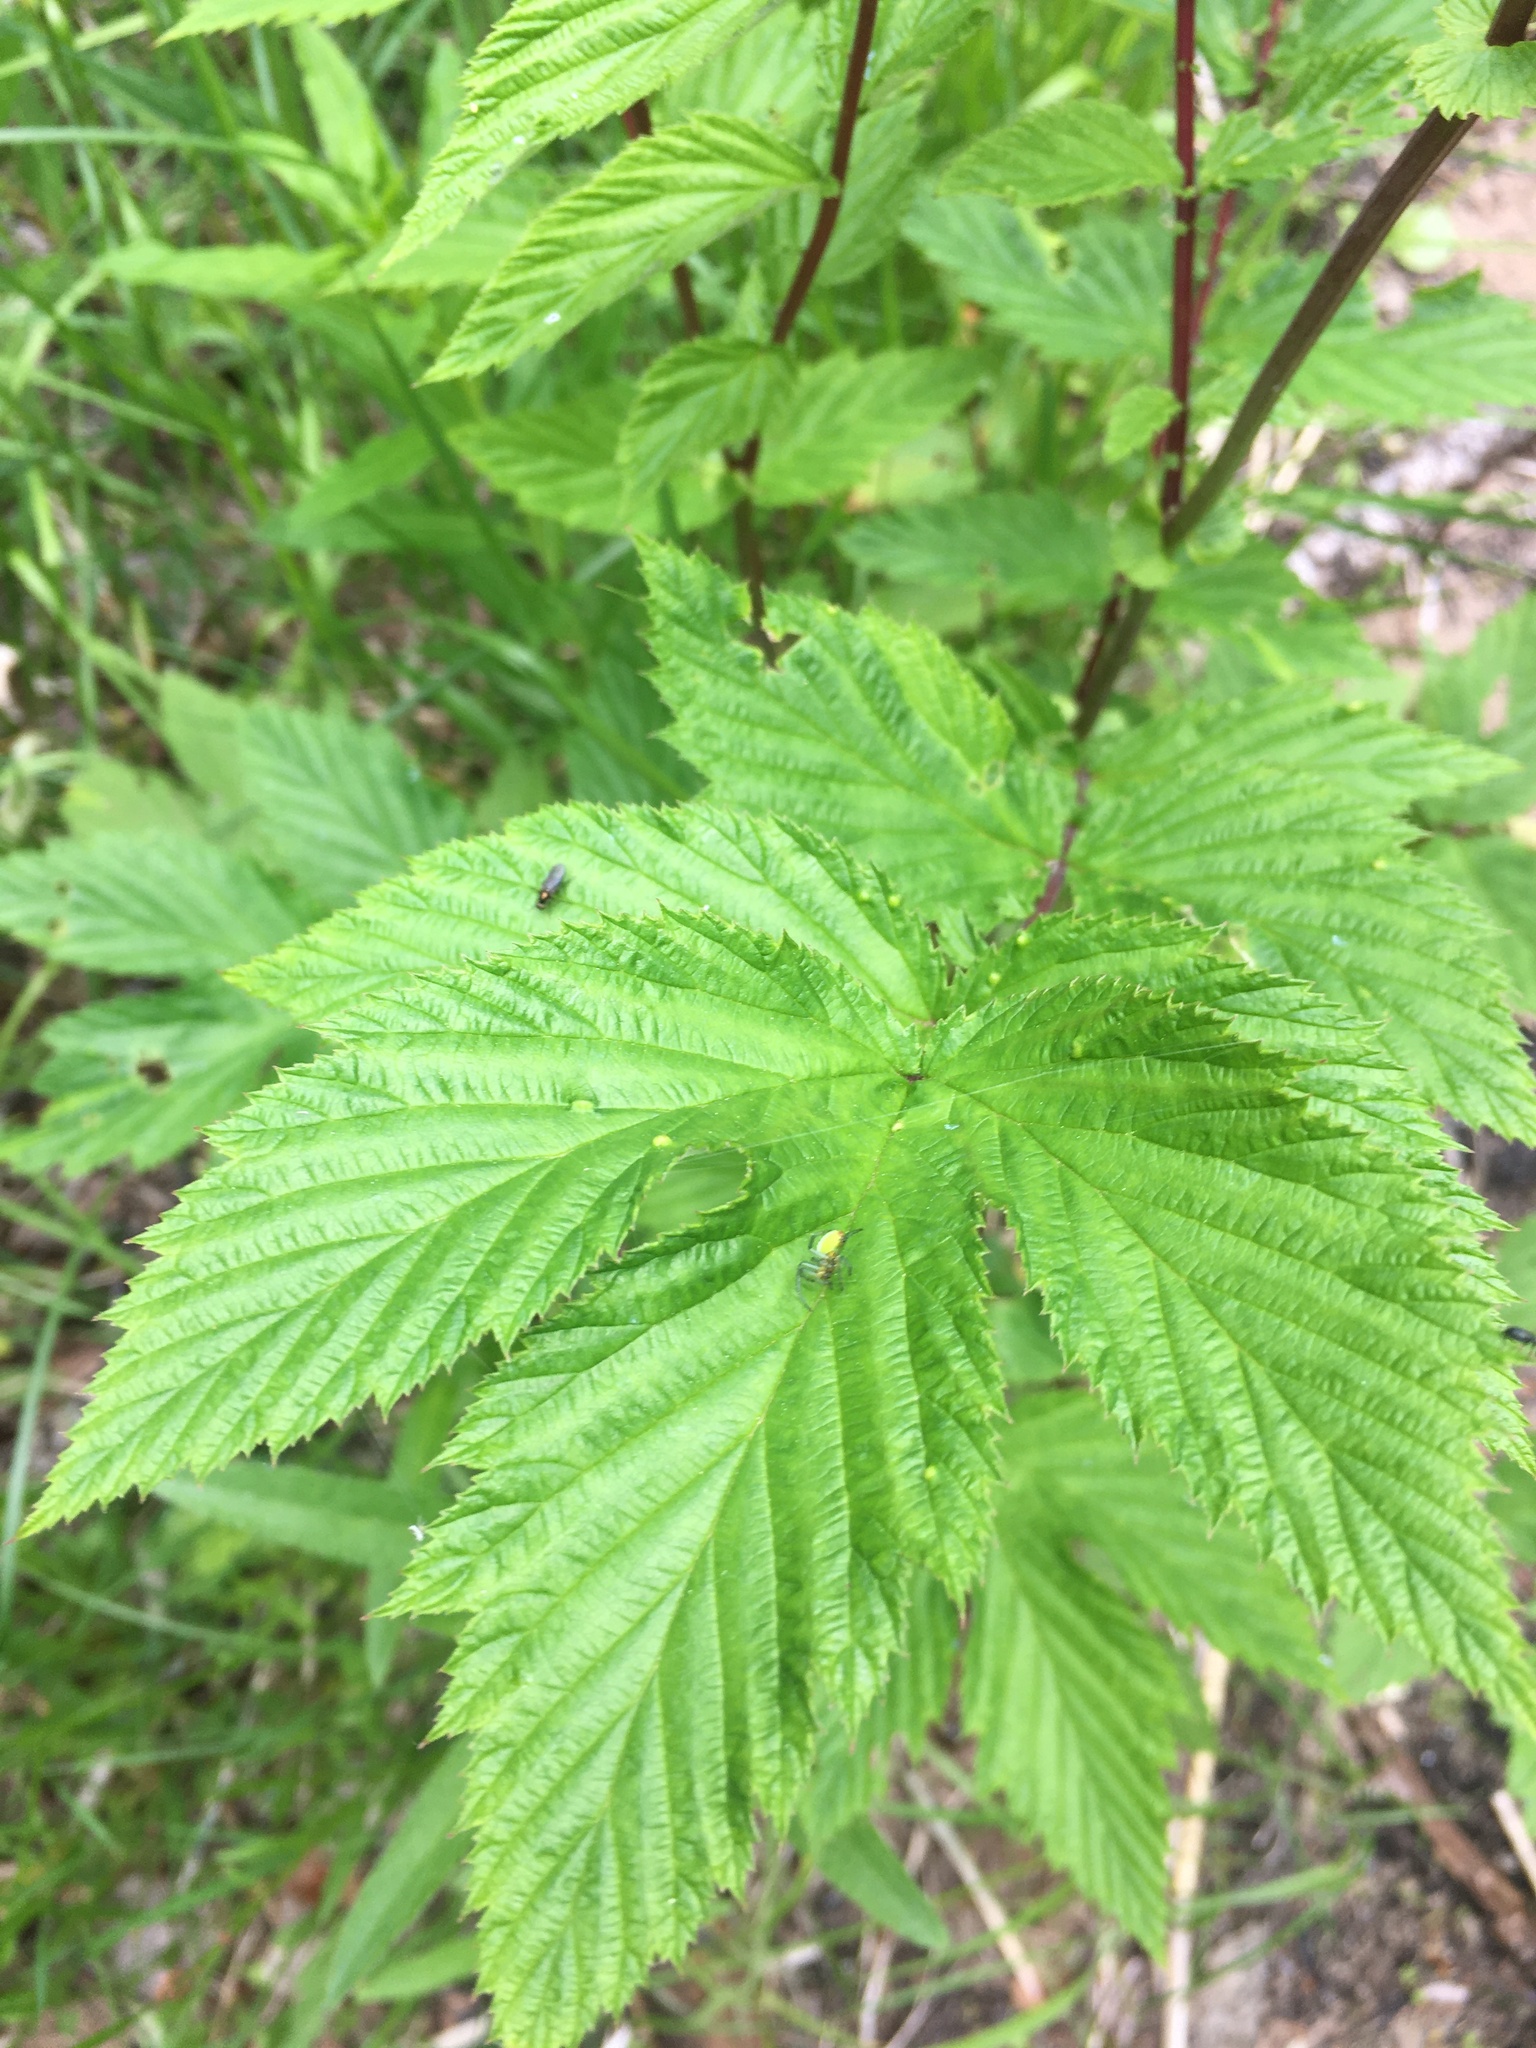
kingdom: Plantae
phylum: Tracheophyta
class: Magnoliopsida
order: Rosales
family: Rosaceae
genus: Filipendula
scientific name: Filipendula ulmaria
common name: Meadowsweet
